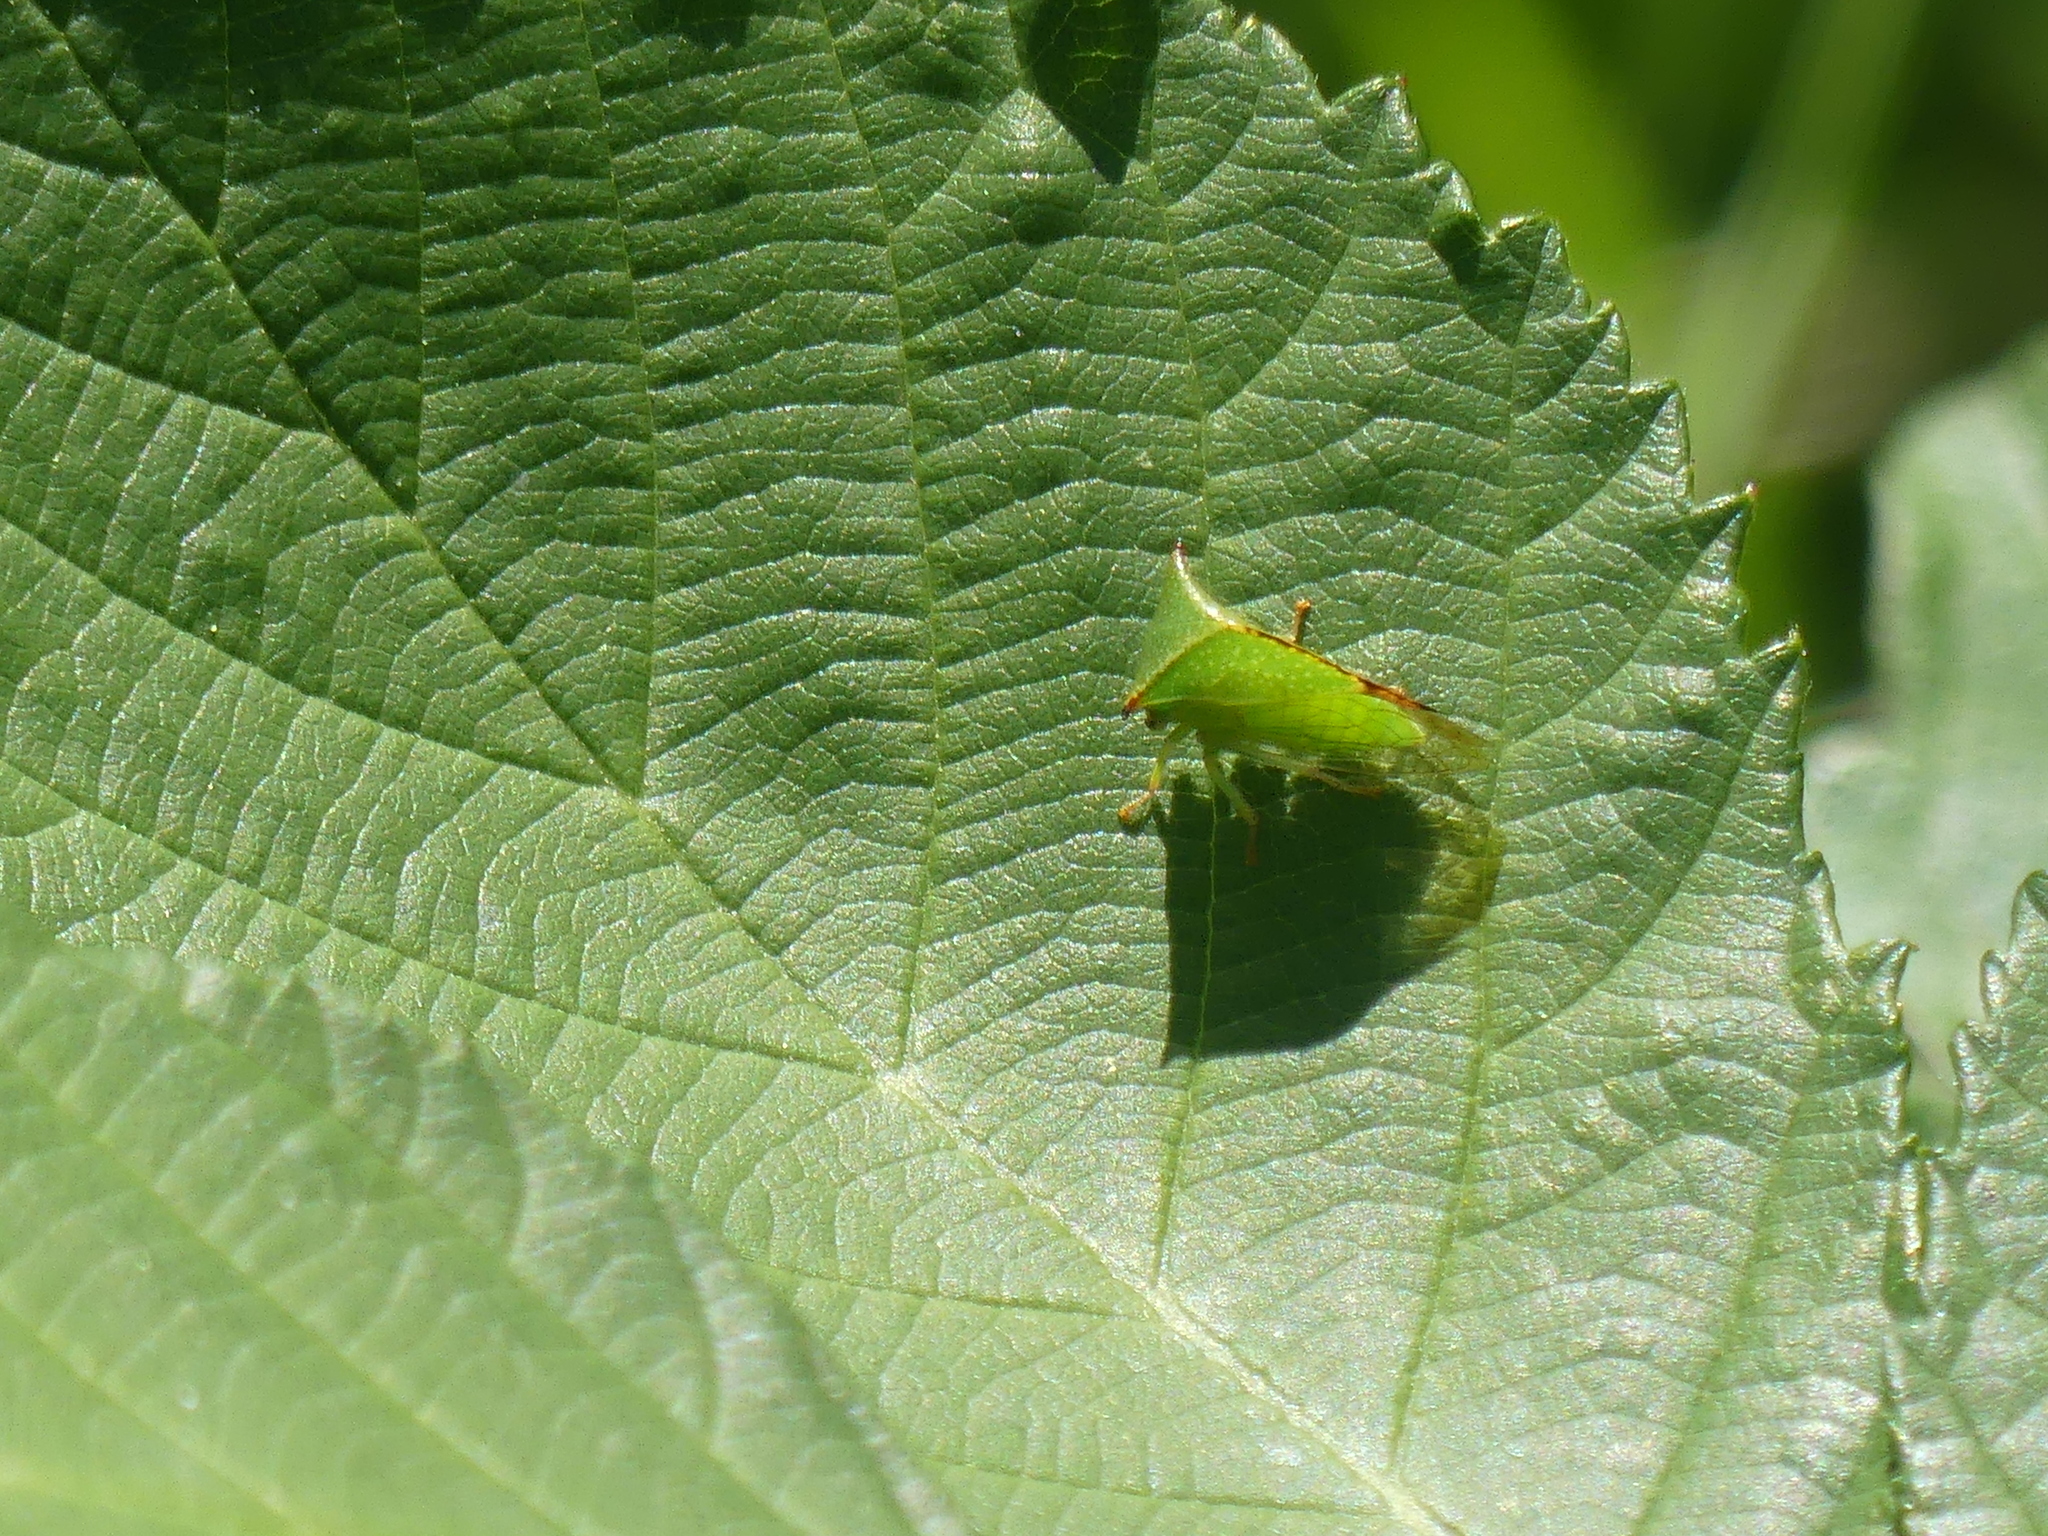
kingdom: Animalia
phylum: Arthropoda
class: Insecta
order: Hemiptera
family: Membracidae
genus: Stictocephala
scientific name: Stictocephala bisonia
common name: American buffalo treehopper
